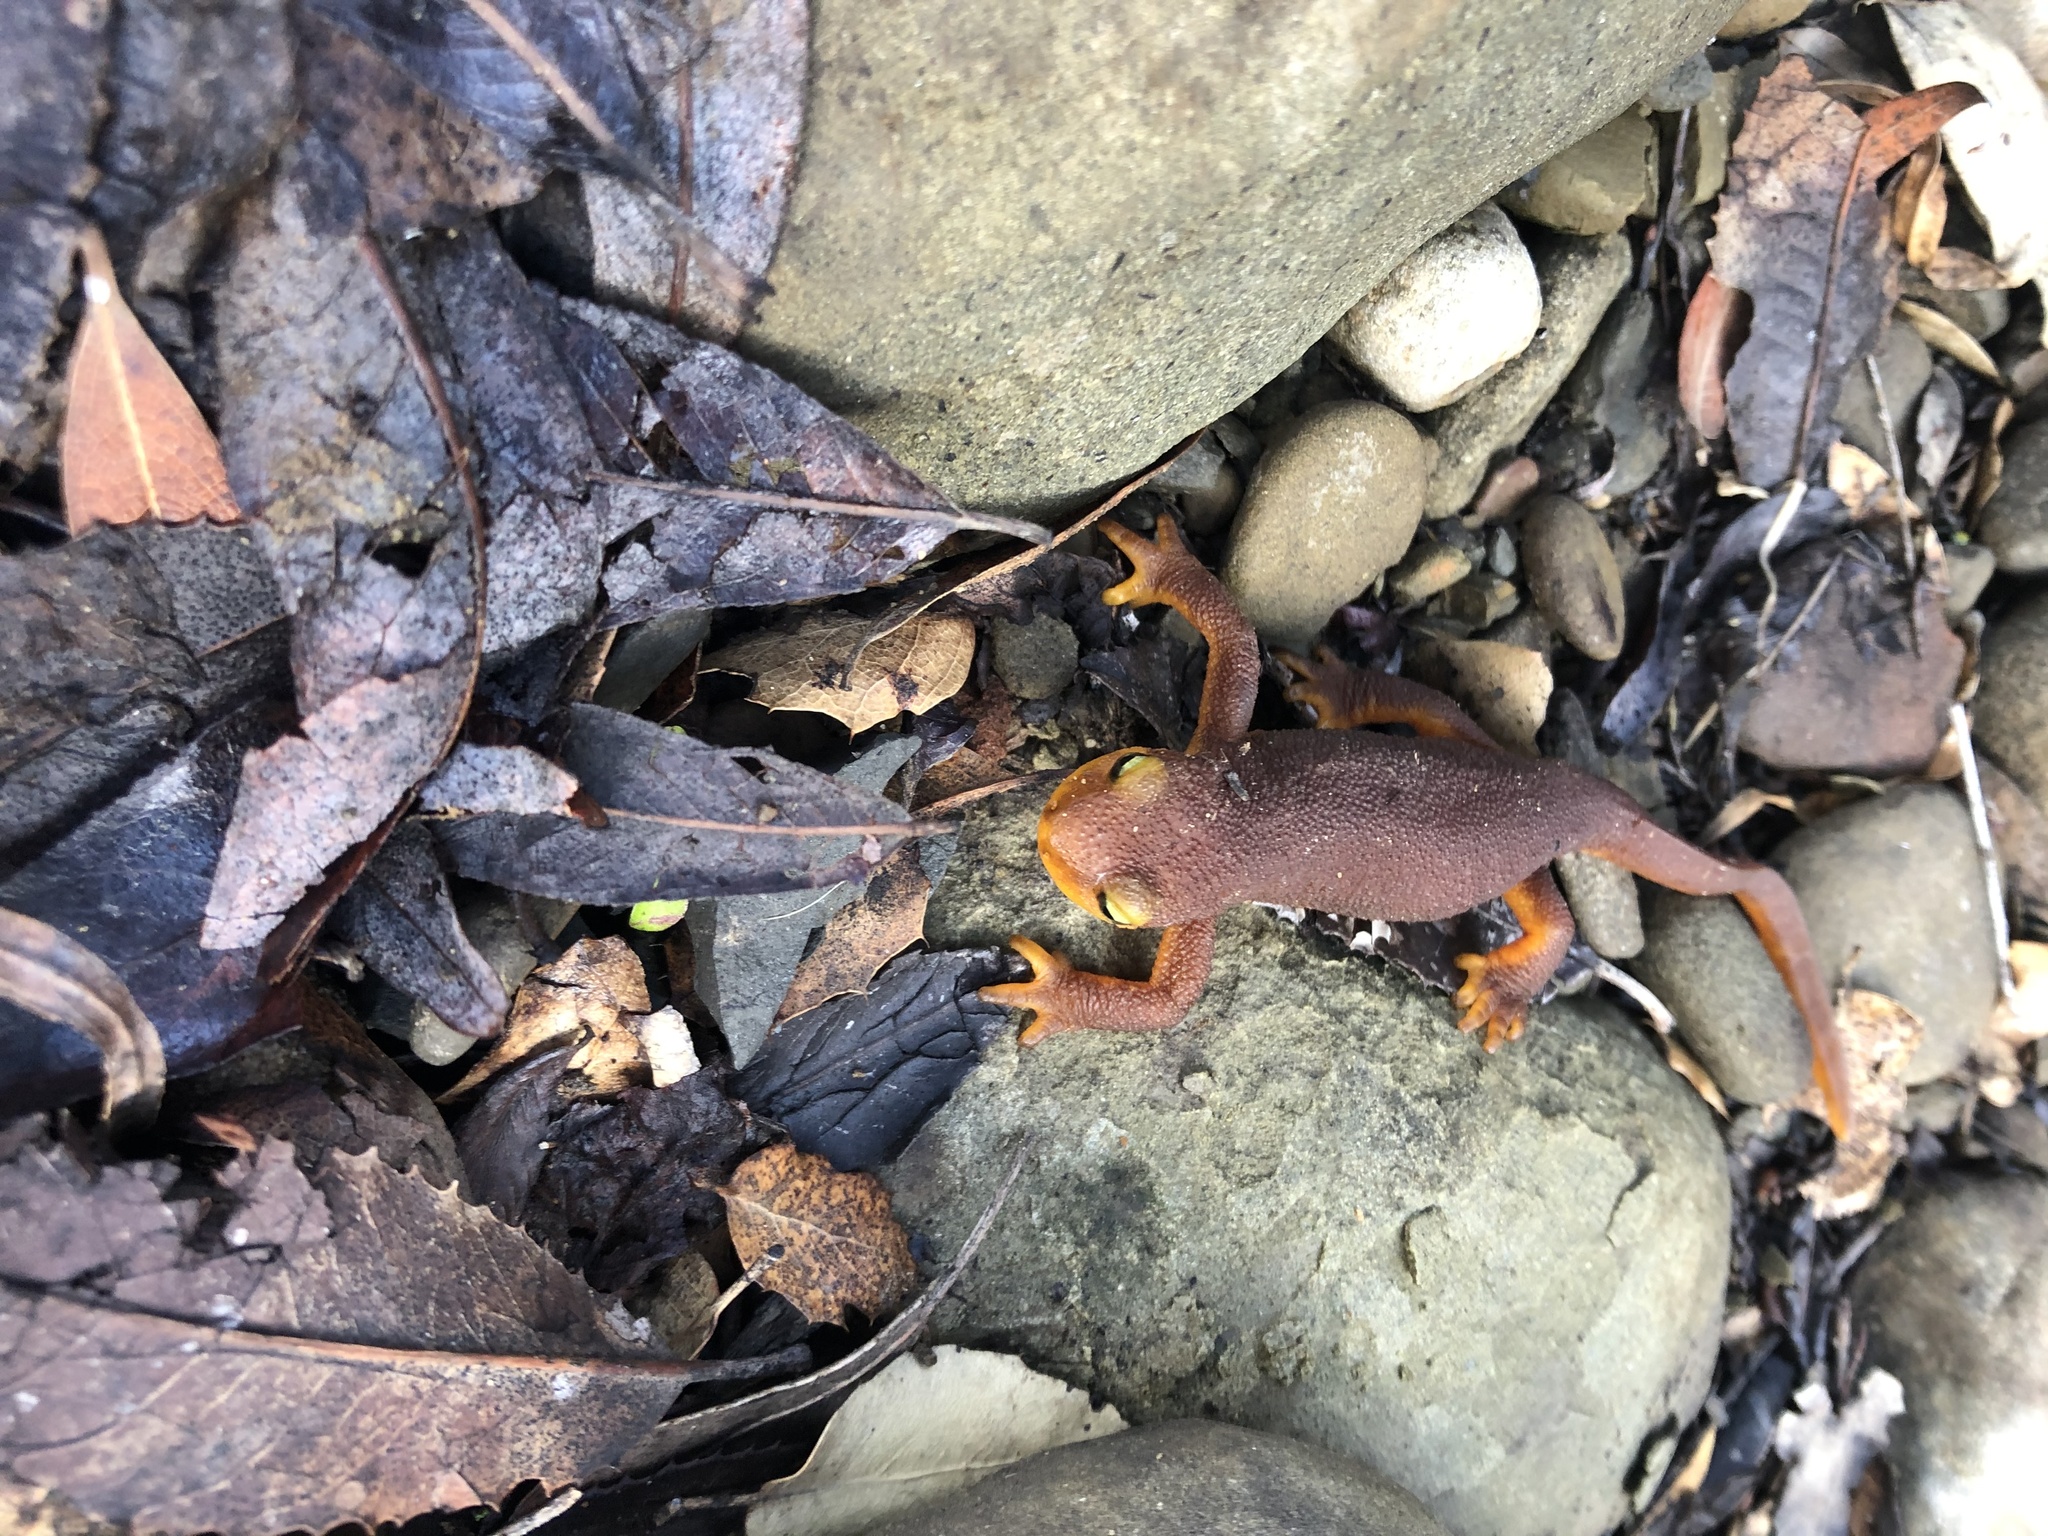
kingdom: Animalia
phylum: Chordata
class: Amphibia
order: Caudata
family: Salamandridae
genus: Taricha
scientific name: Taricha torosa
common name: California newt
